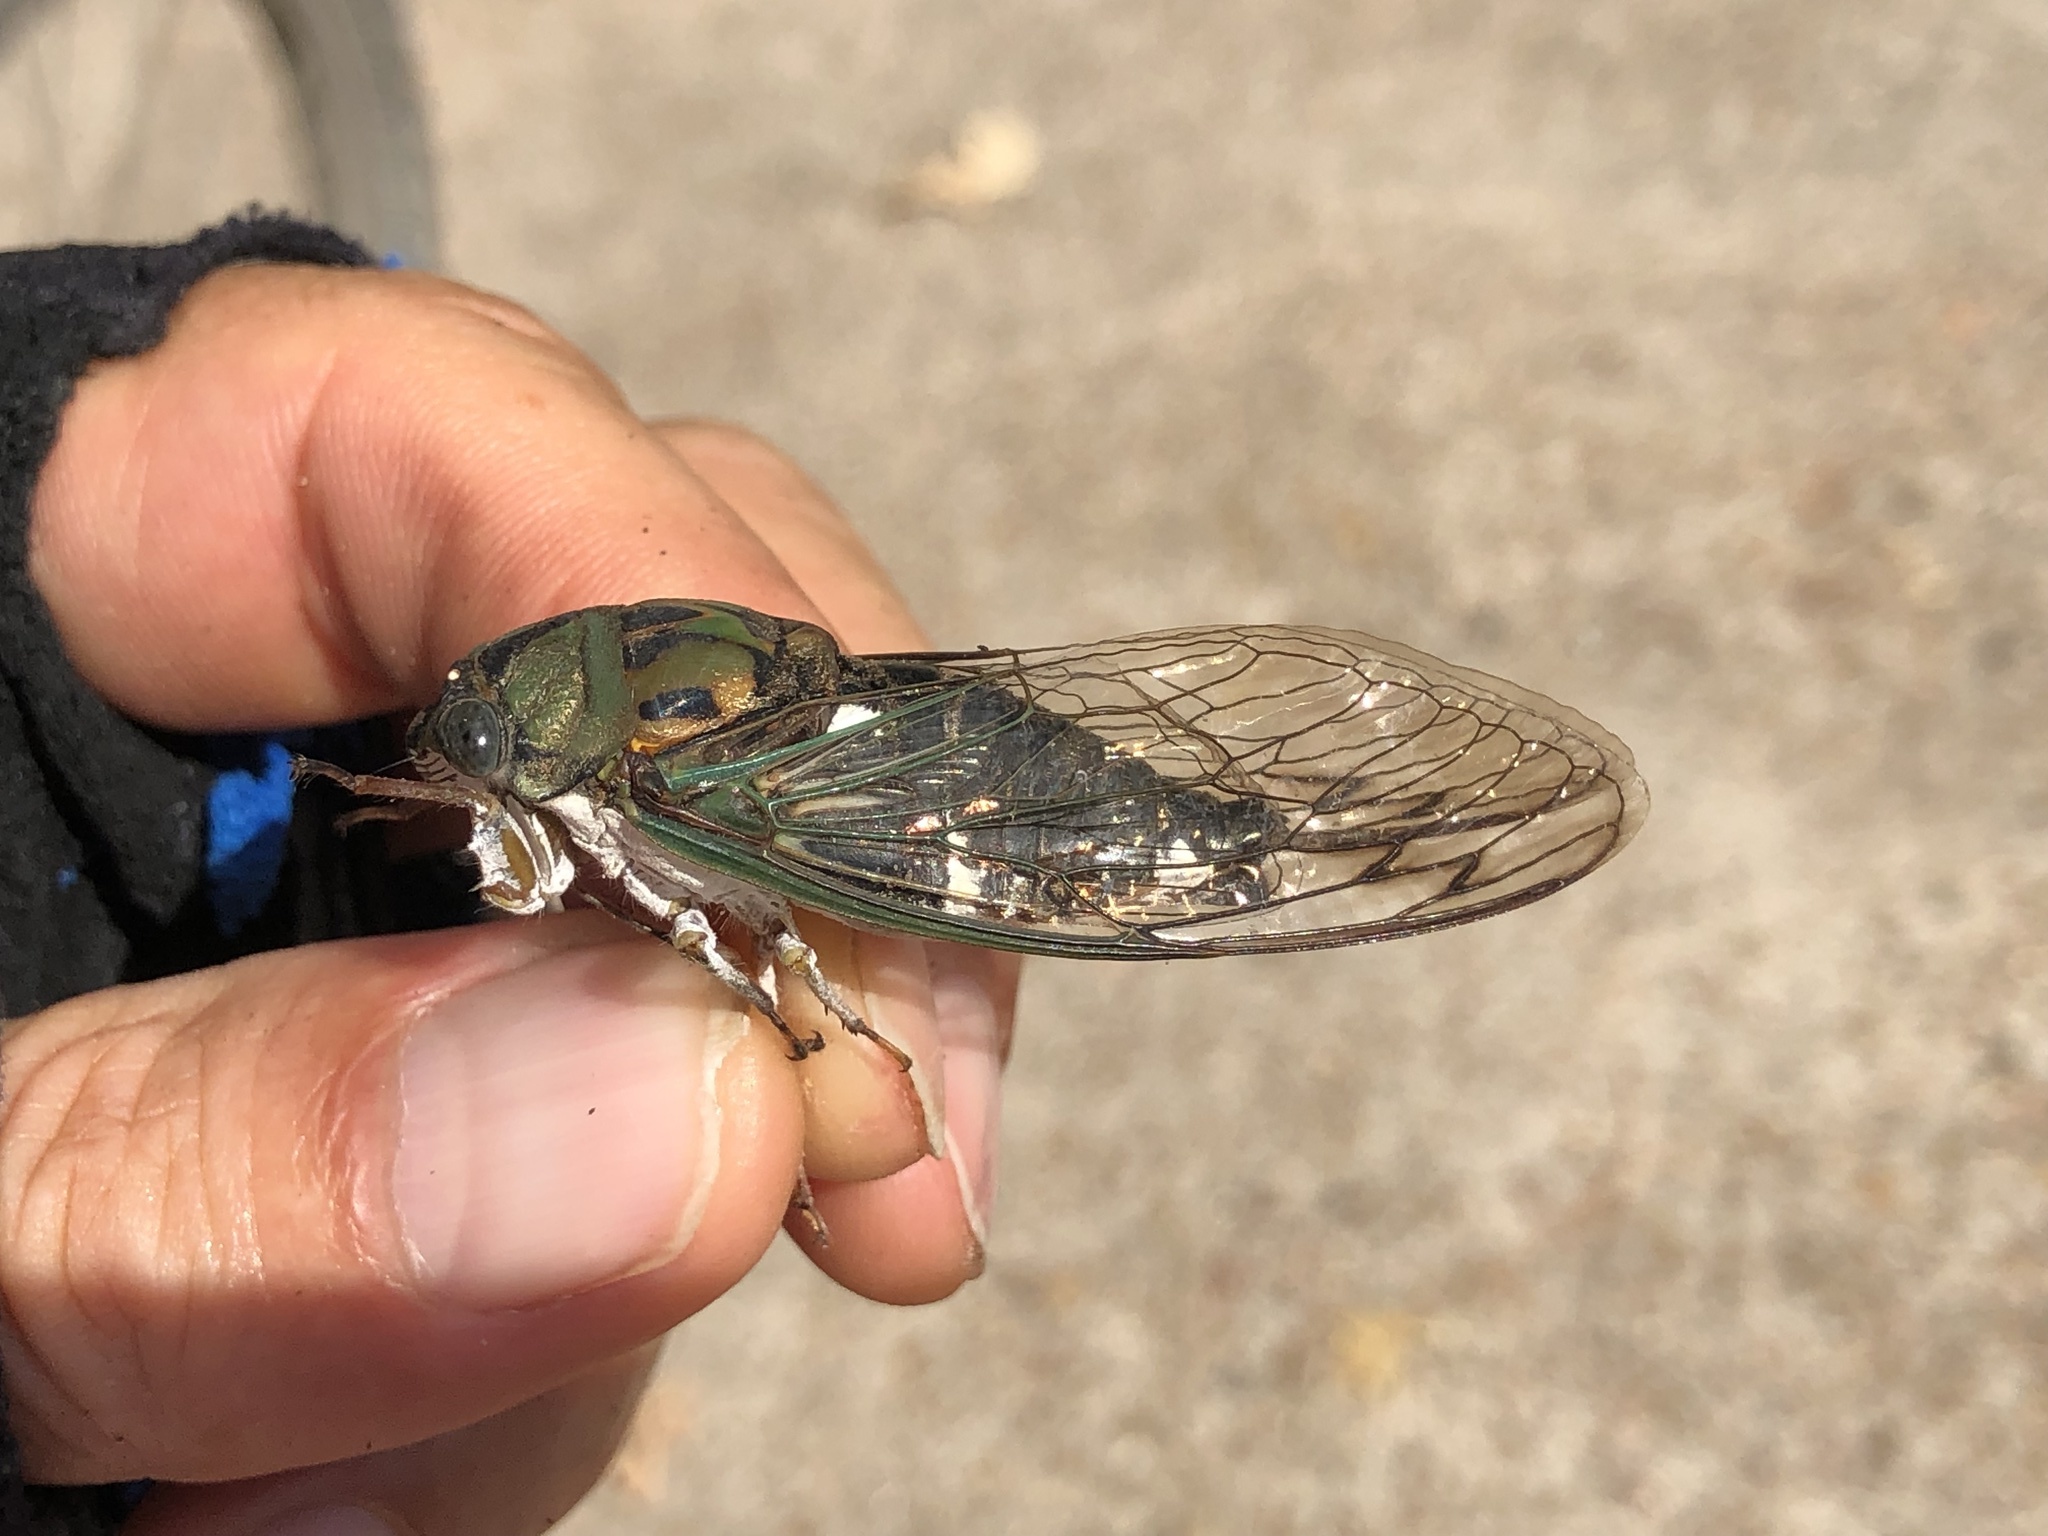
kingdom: Animalia
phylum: Arthropoda
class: Insecta
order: Hemiptera
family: Cicadidae
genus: Neotibicen
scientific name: Neotibicen pruinosus
